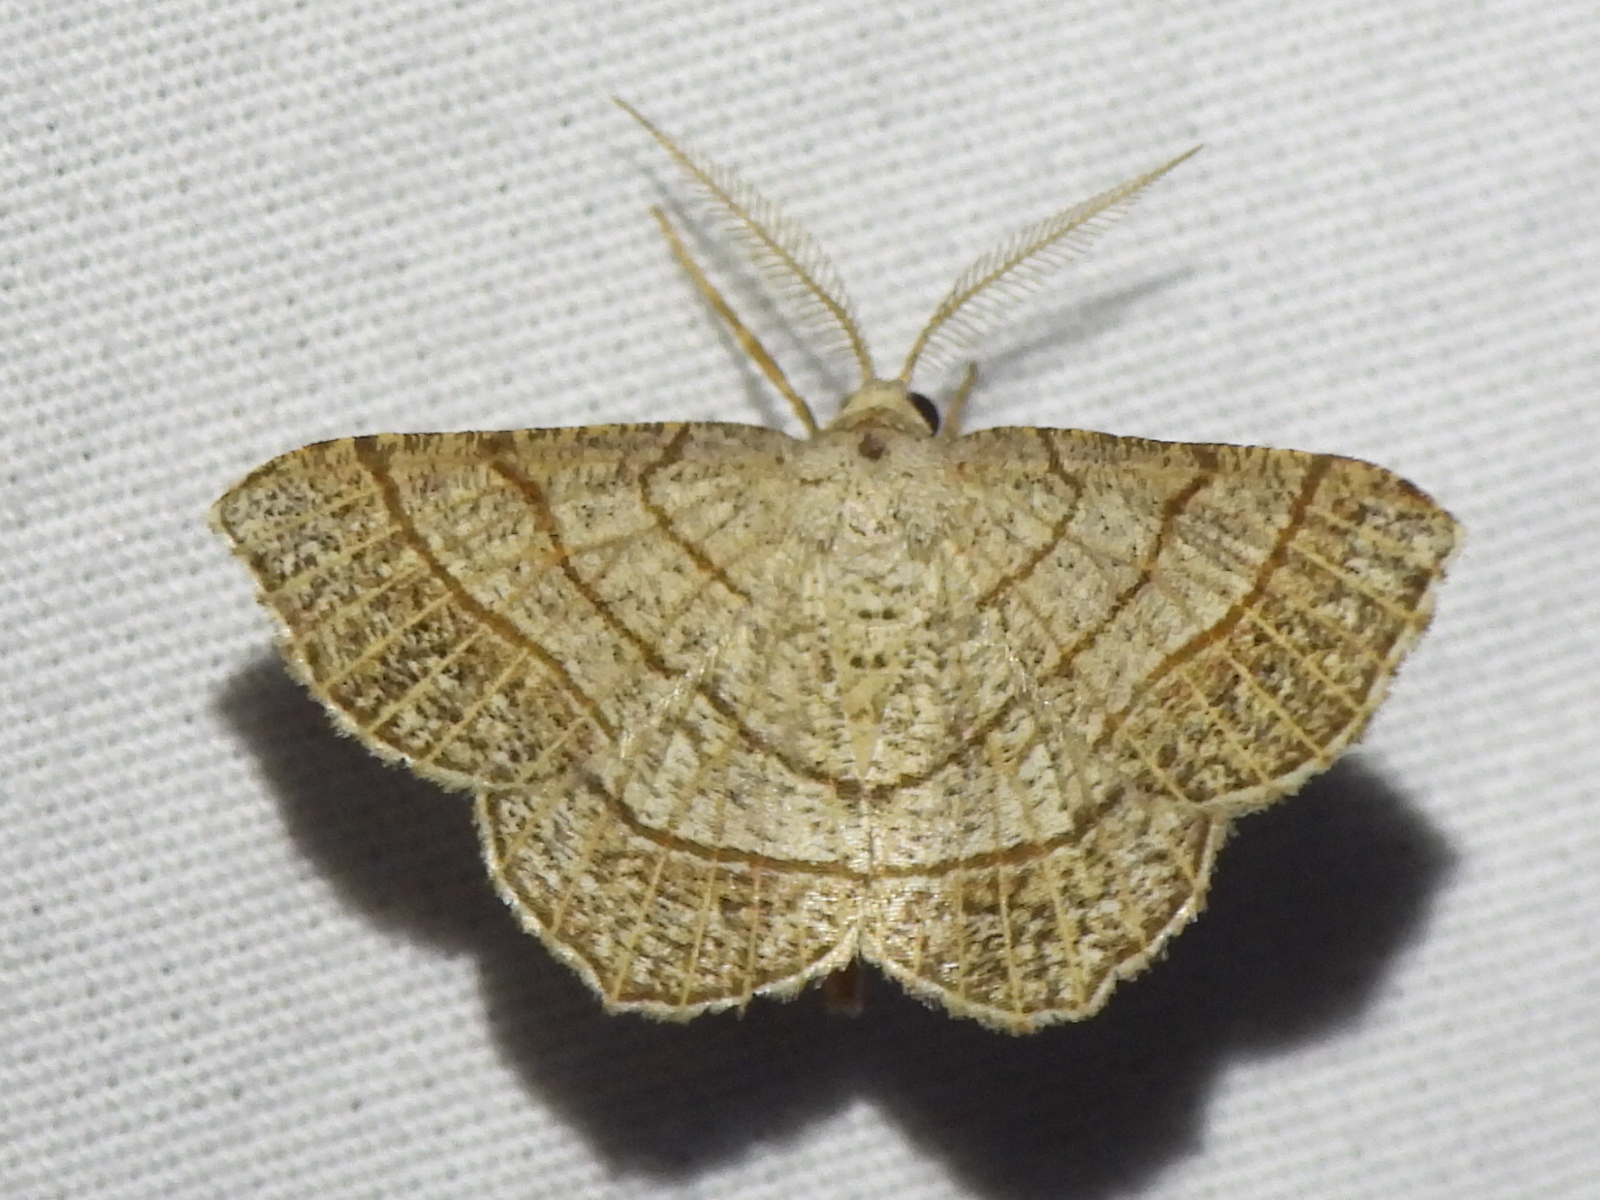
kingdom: Animalia
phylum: Arthropoda
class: Insecta
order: Lepidoptera
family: Geometridae
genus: Eumacaria
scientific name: Eumacaria madopata
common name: Brown-bordered geometer
